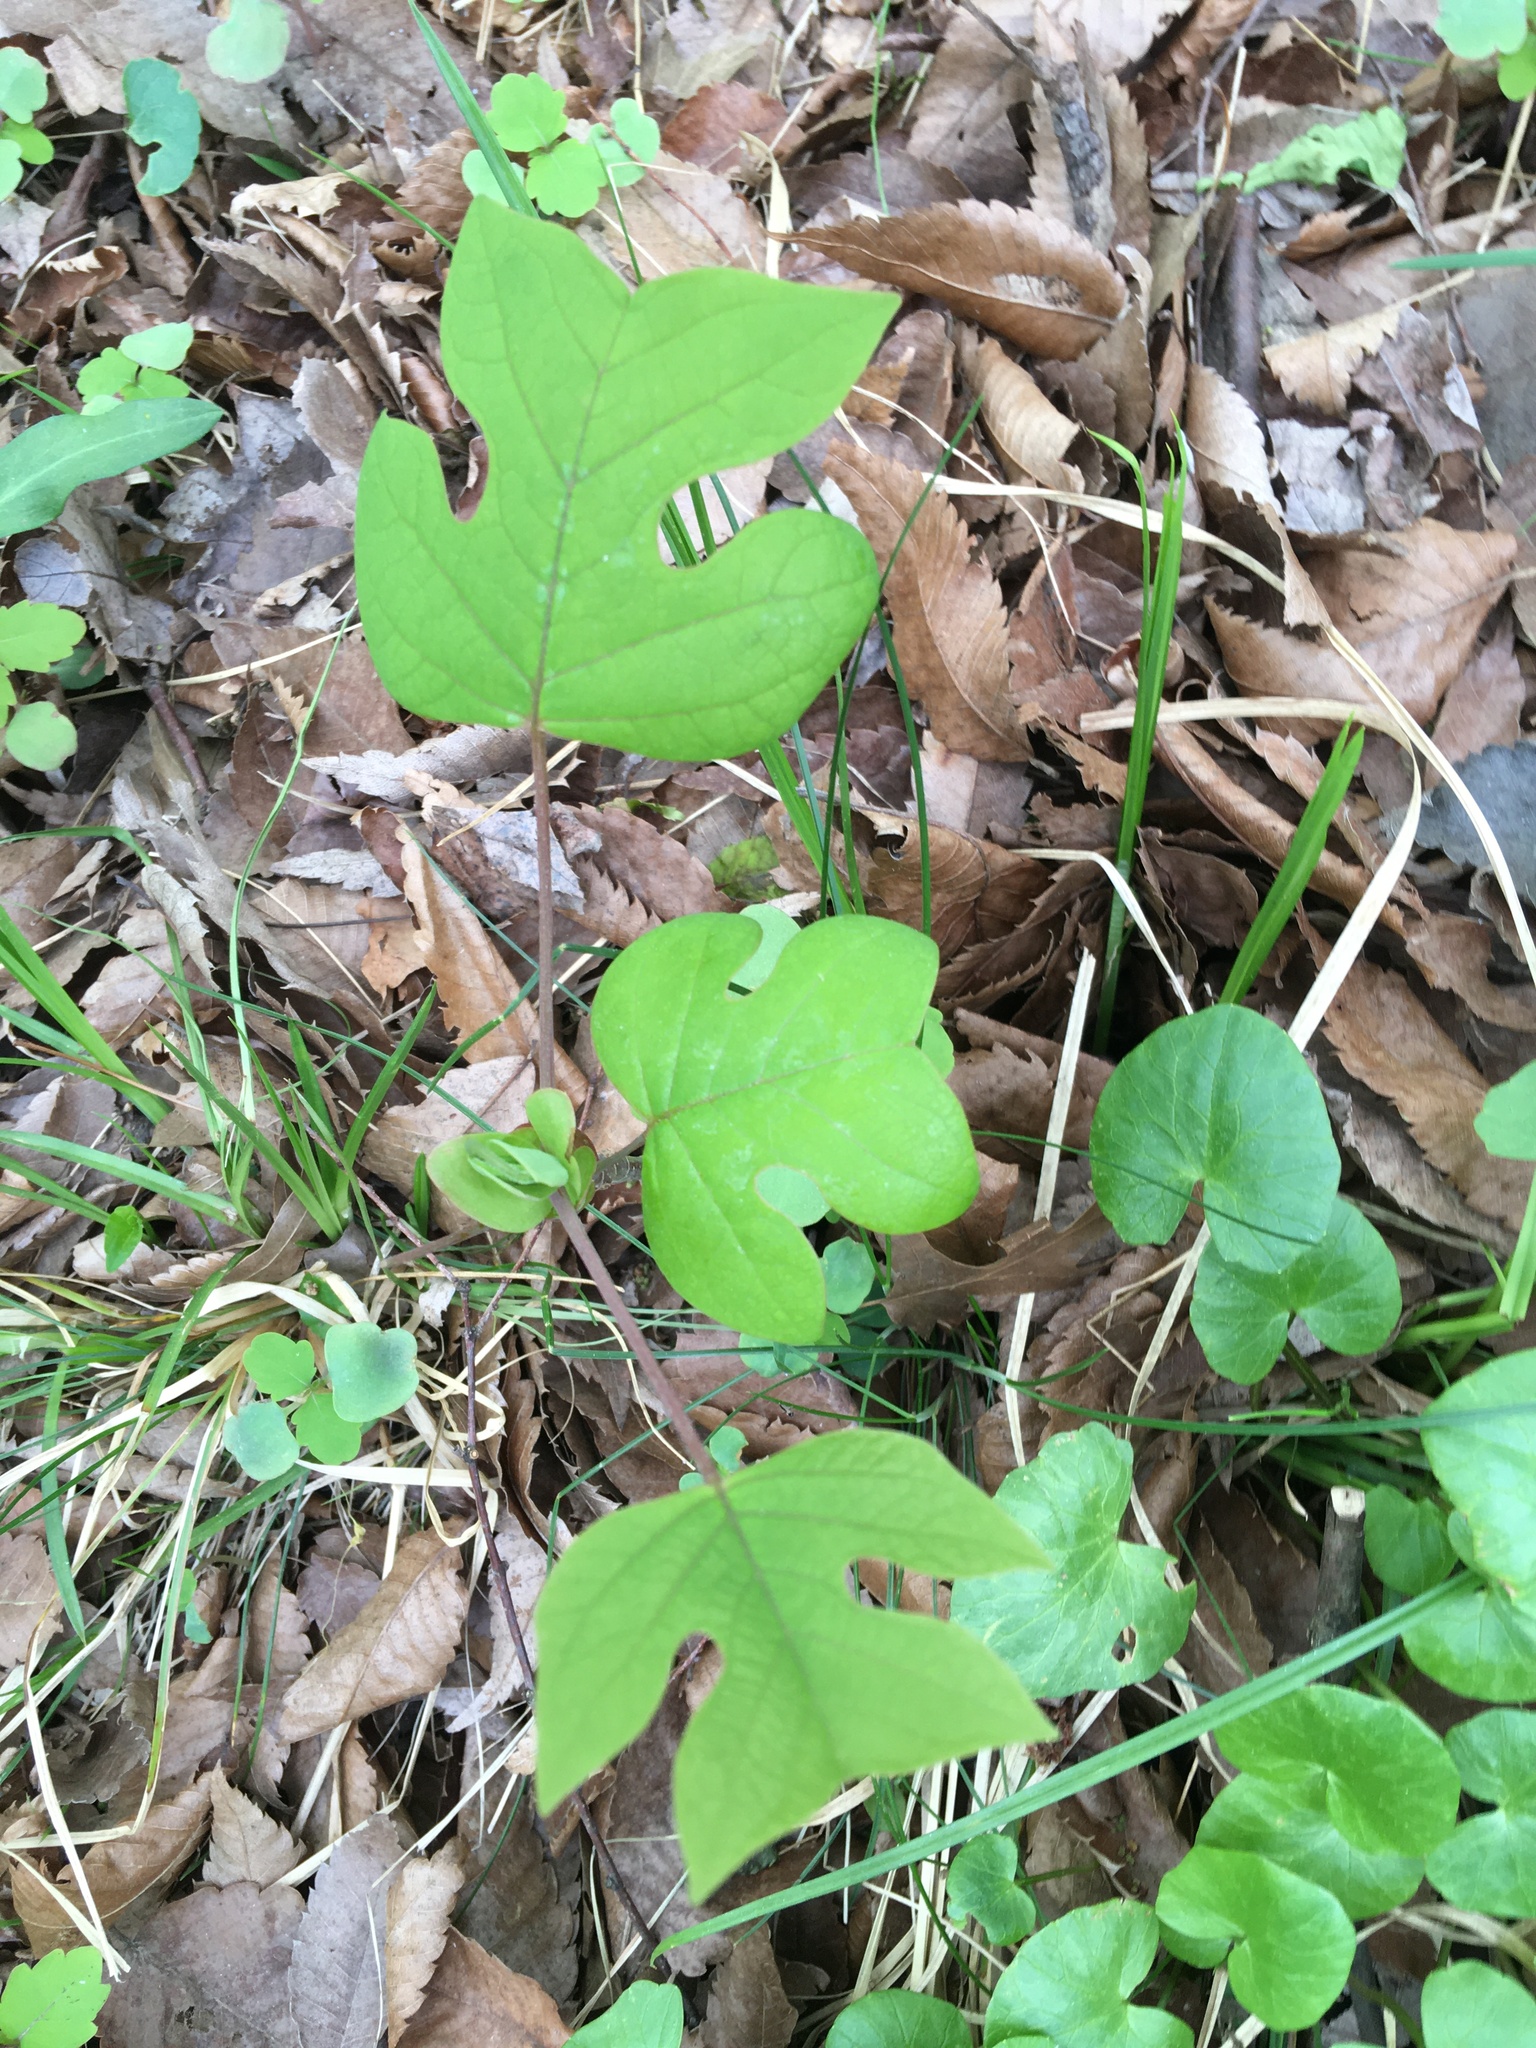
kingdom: Plantae
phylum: Tracheophyta
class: Magnoliopsida
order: Magnoliales
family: Magnoliaceae
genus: Liriodendron
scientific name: Liriodendron tulipifera
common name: Tulip tree
